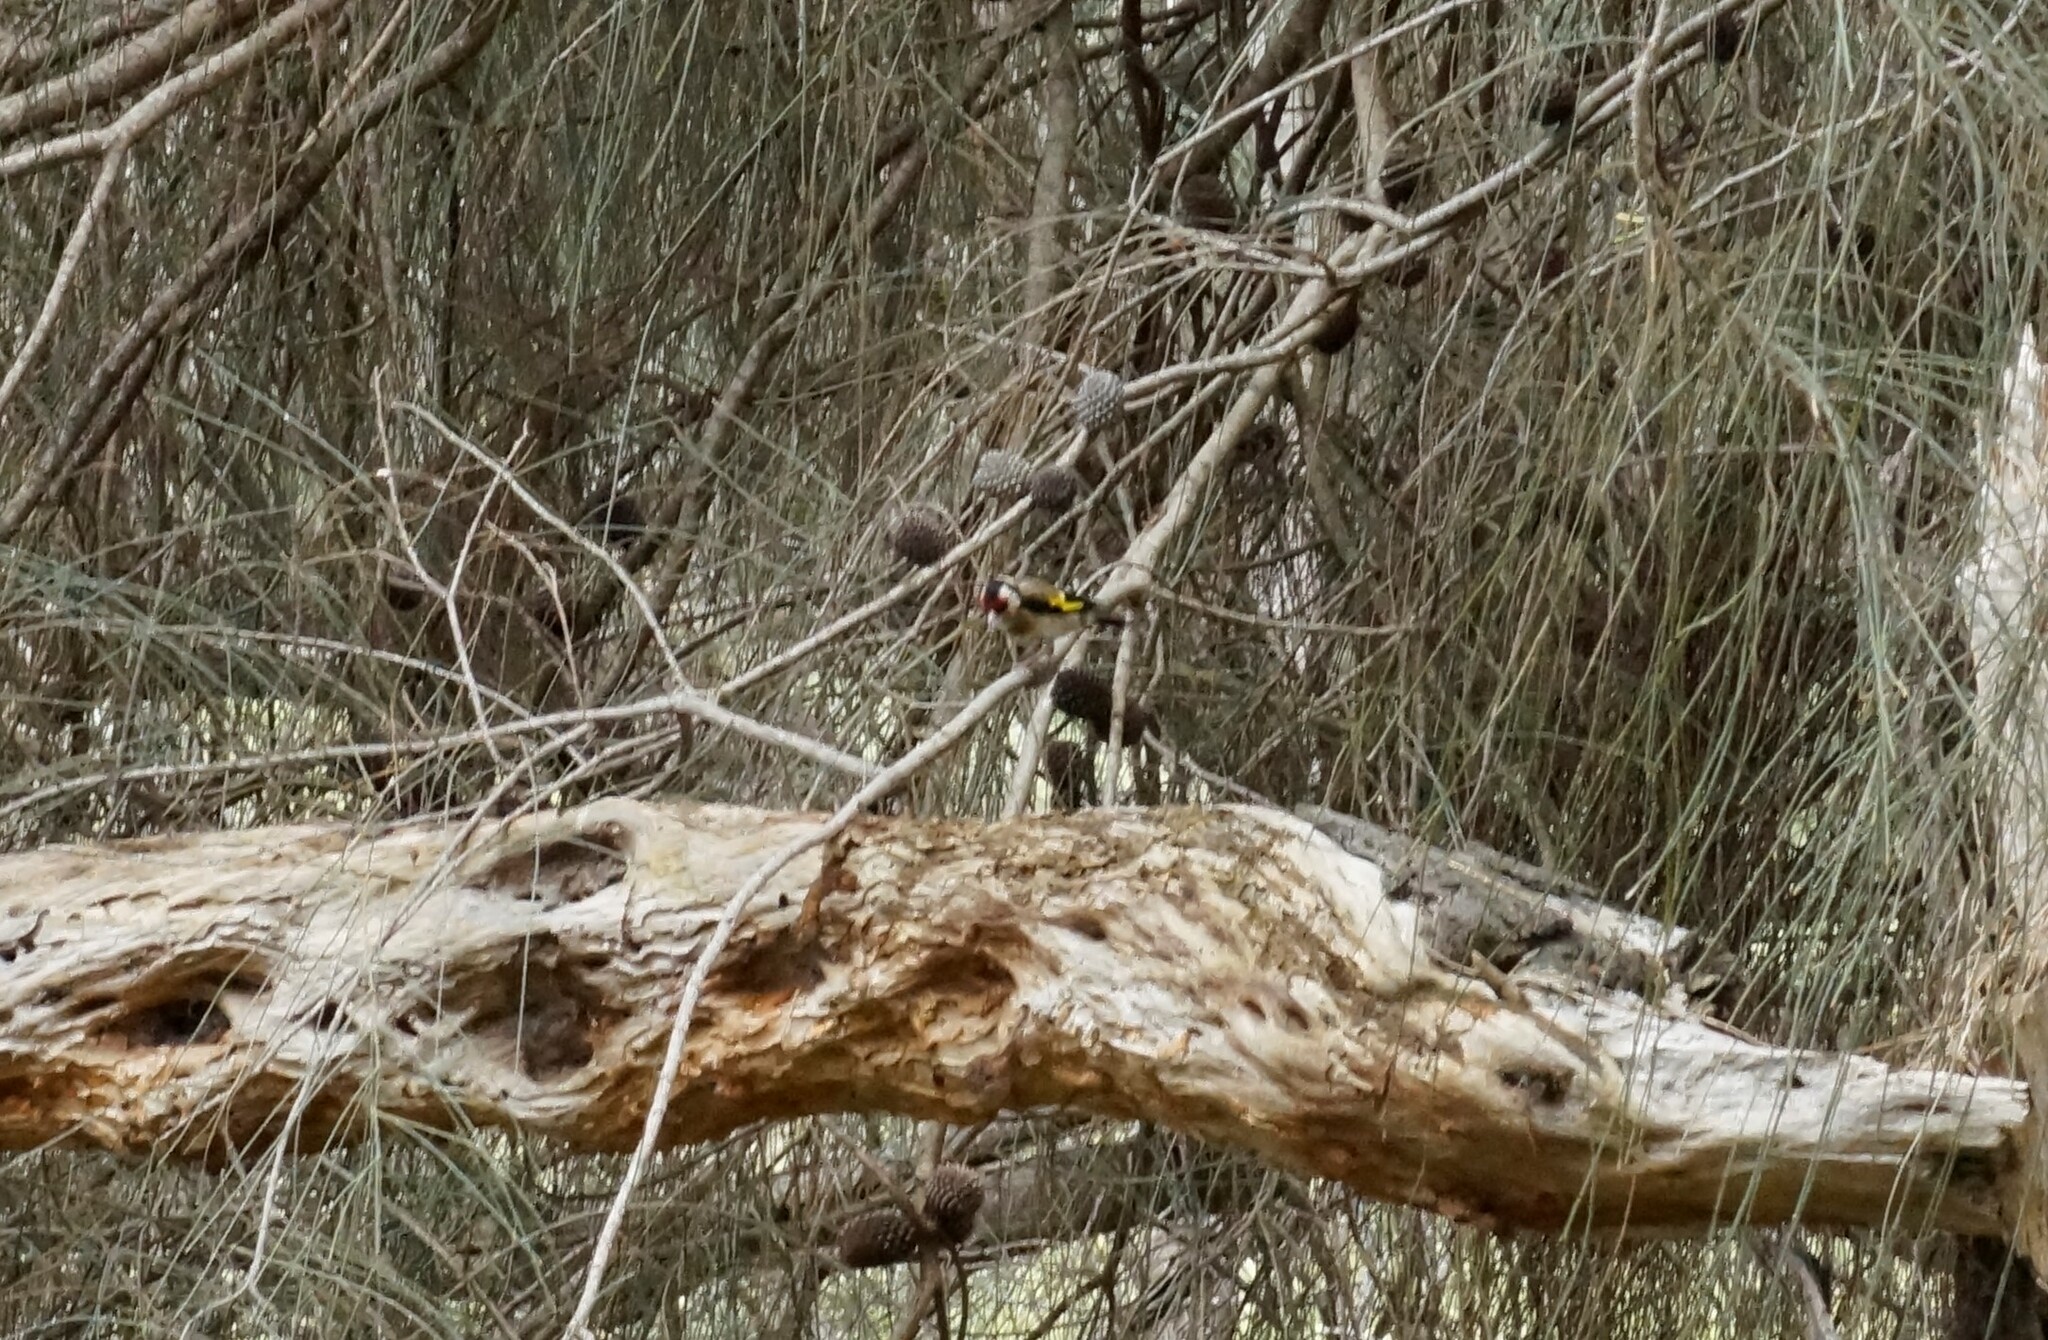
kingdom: Animalia
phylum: Chordata
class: Aves
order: Passeriformes
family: Fringillidae
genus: Carduelis
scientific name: Carduelis carduelis
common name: European goldfinch
